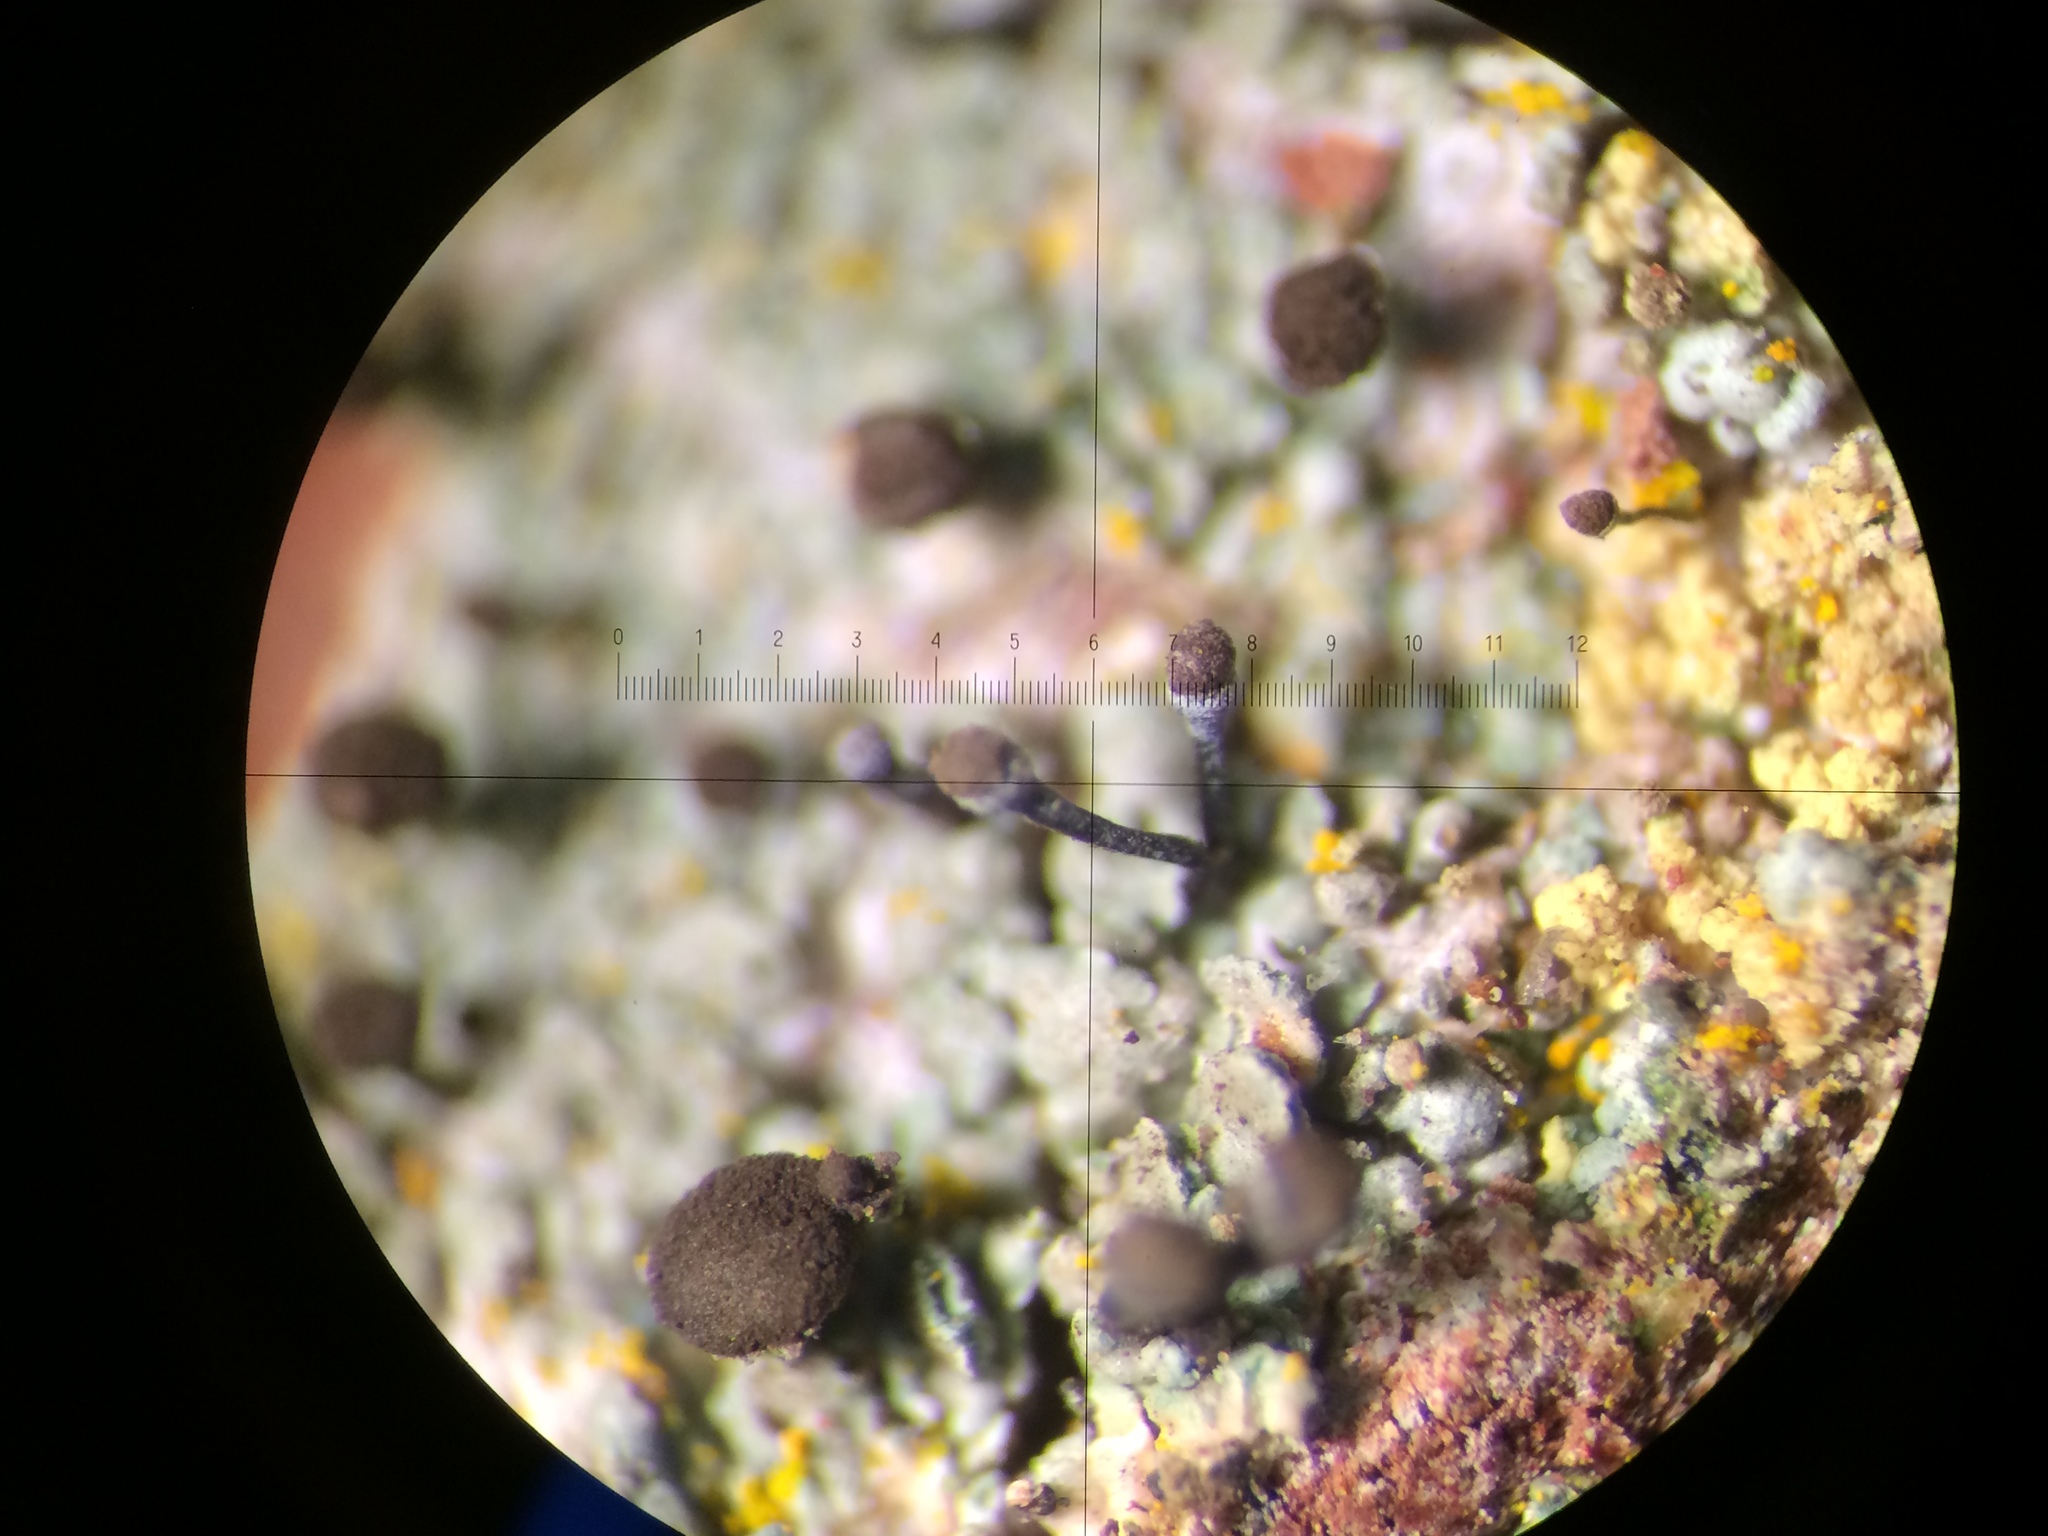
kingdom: Fungi
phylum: Ascomycota
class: Coniocybomycetes
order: Coniocybales
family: Coniocybaceae
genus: Chaenotheca
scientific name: Chaenotheca trichialis
